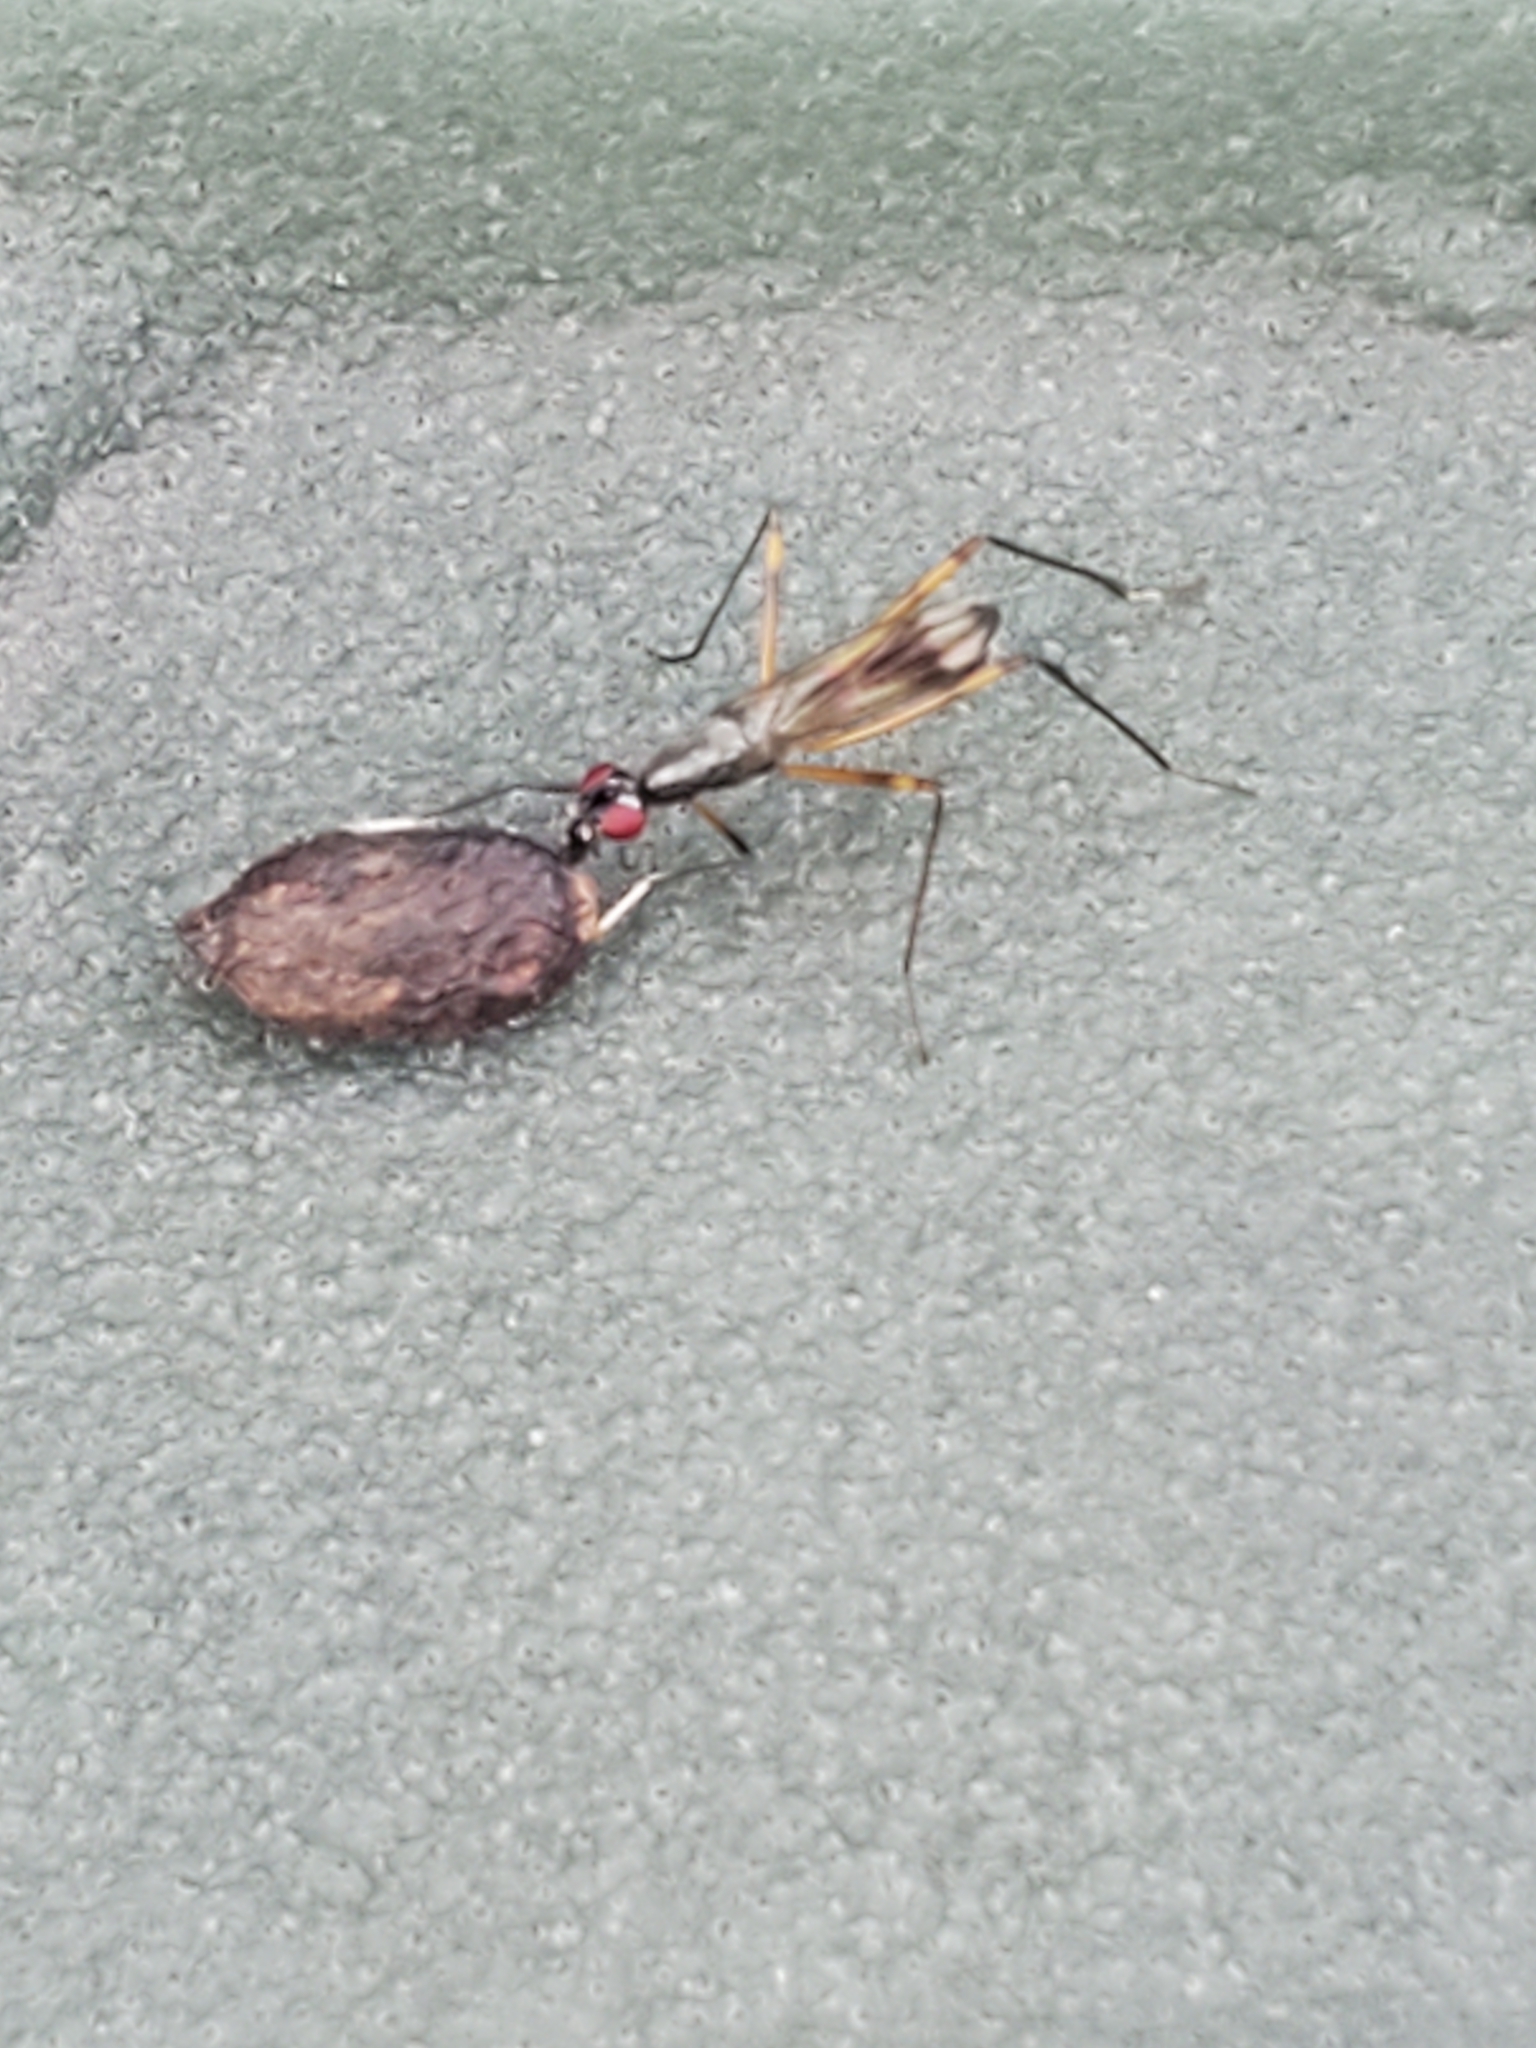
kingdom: Animalia
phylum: Arthropoda
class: Insecta
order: Diptera
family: Micropezidae
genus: Rainieria
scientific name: Rainieria antennaepes
